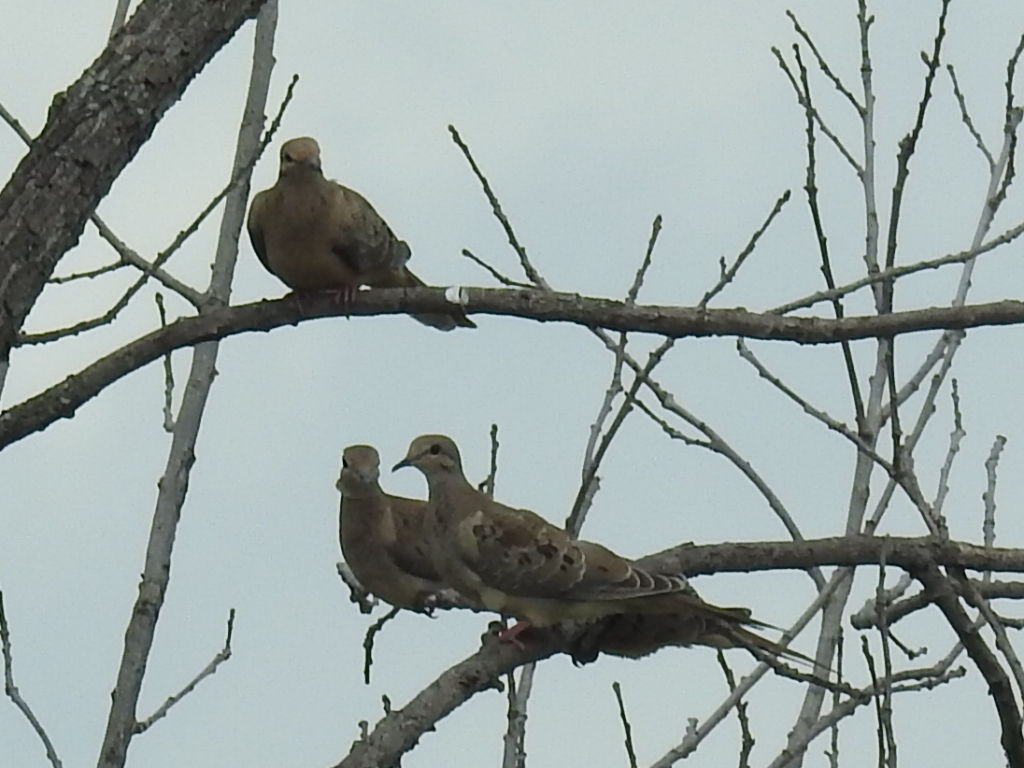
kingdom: Animalia
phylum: Chordata
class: Aves
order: Columbiformes
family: Columbidae
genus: Zenaida
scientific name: Zenaida macroura
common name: Mourning dove
